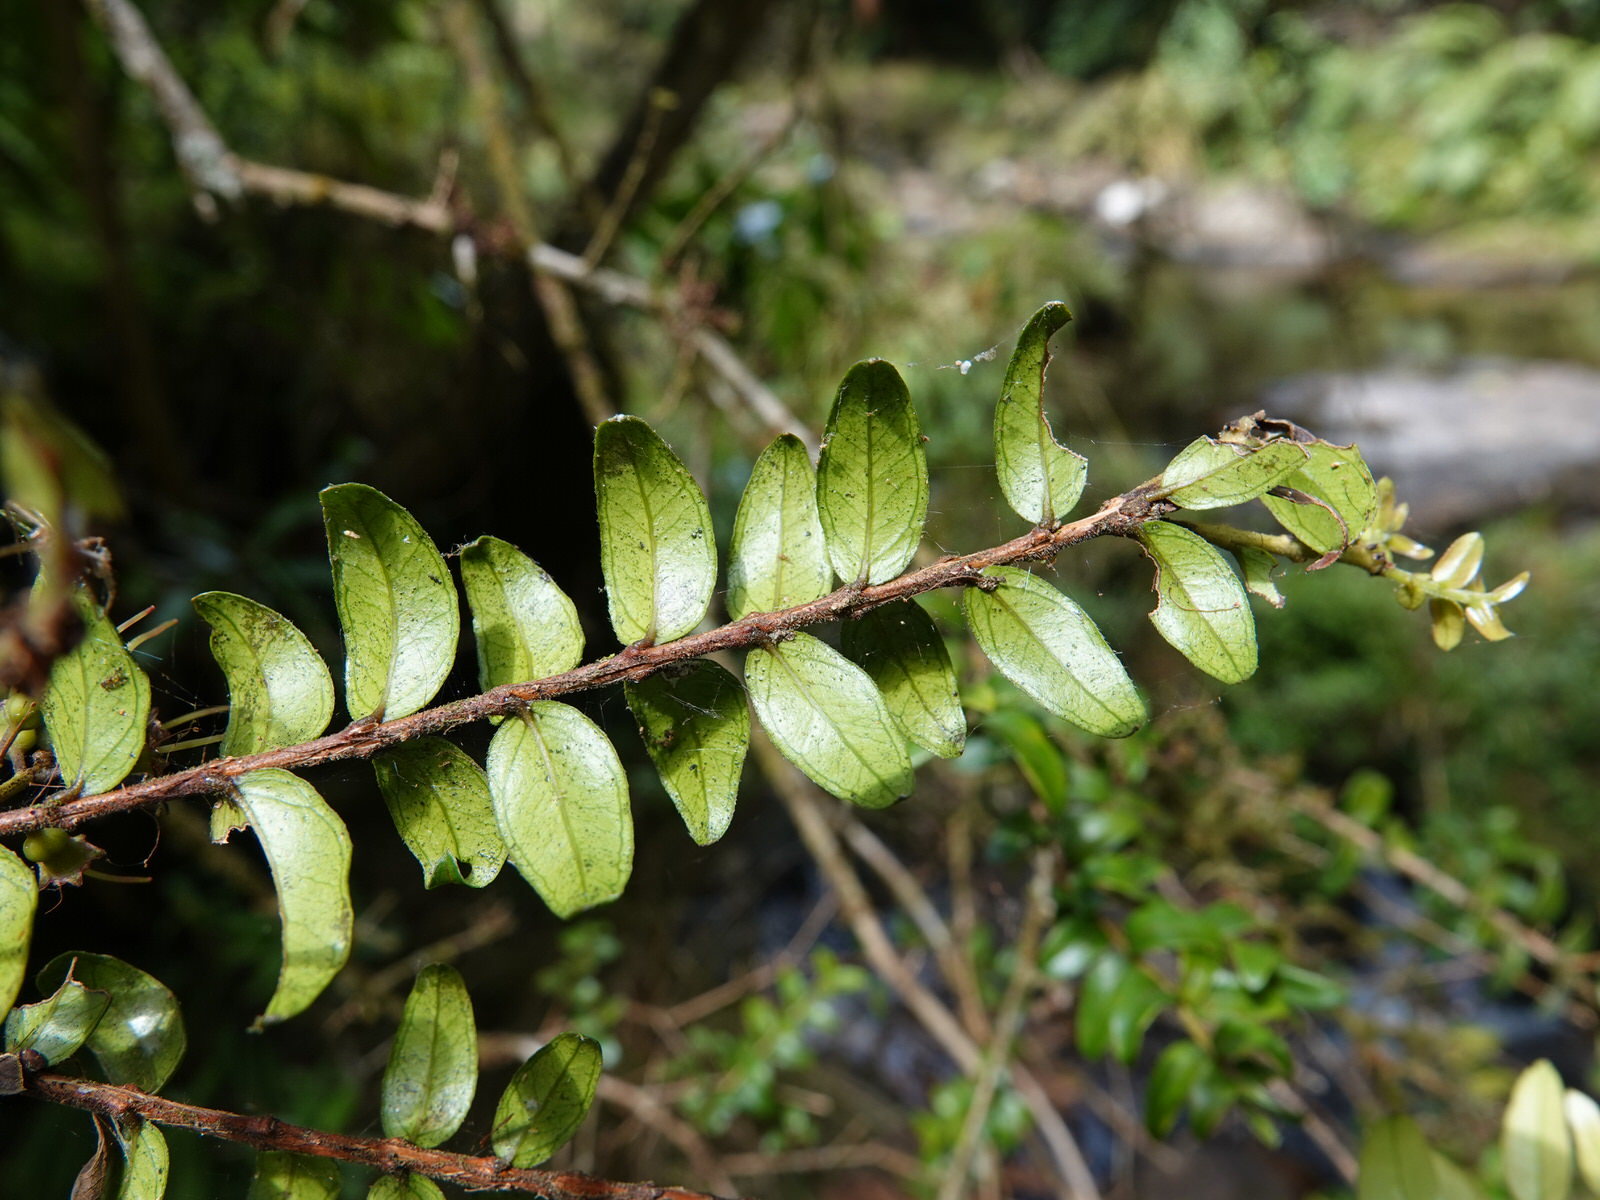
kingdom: Plantae
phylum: Tracheophyta
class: Magnoliopsida
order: Myrtales
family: Myrtaceae
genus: Metrosideros
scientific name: Metrosideros diffusa
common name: Small ratavine
